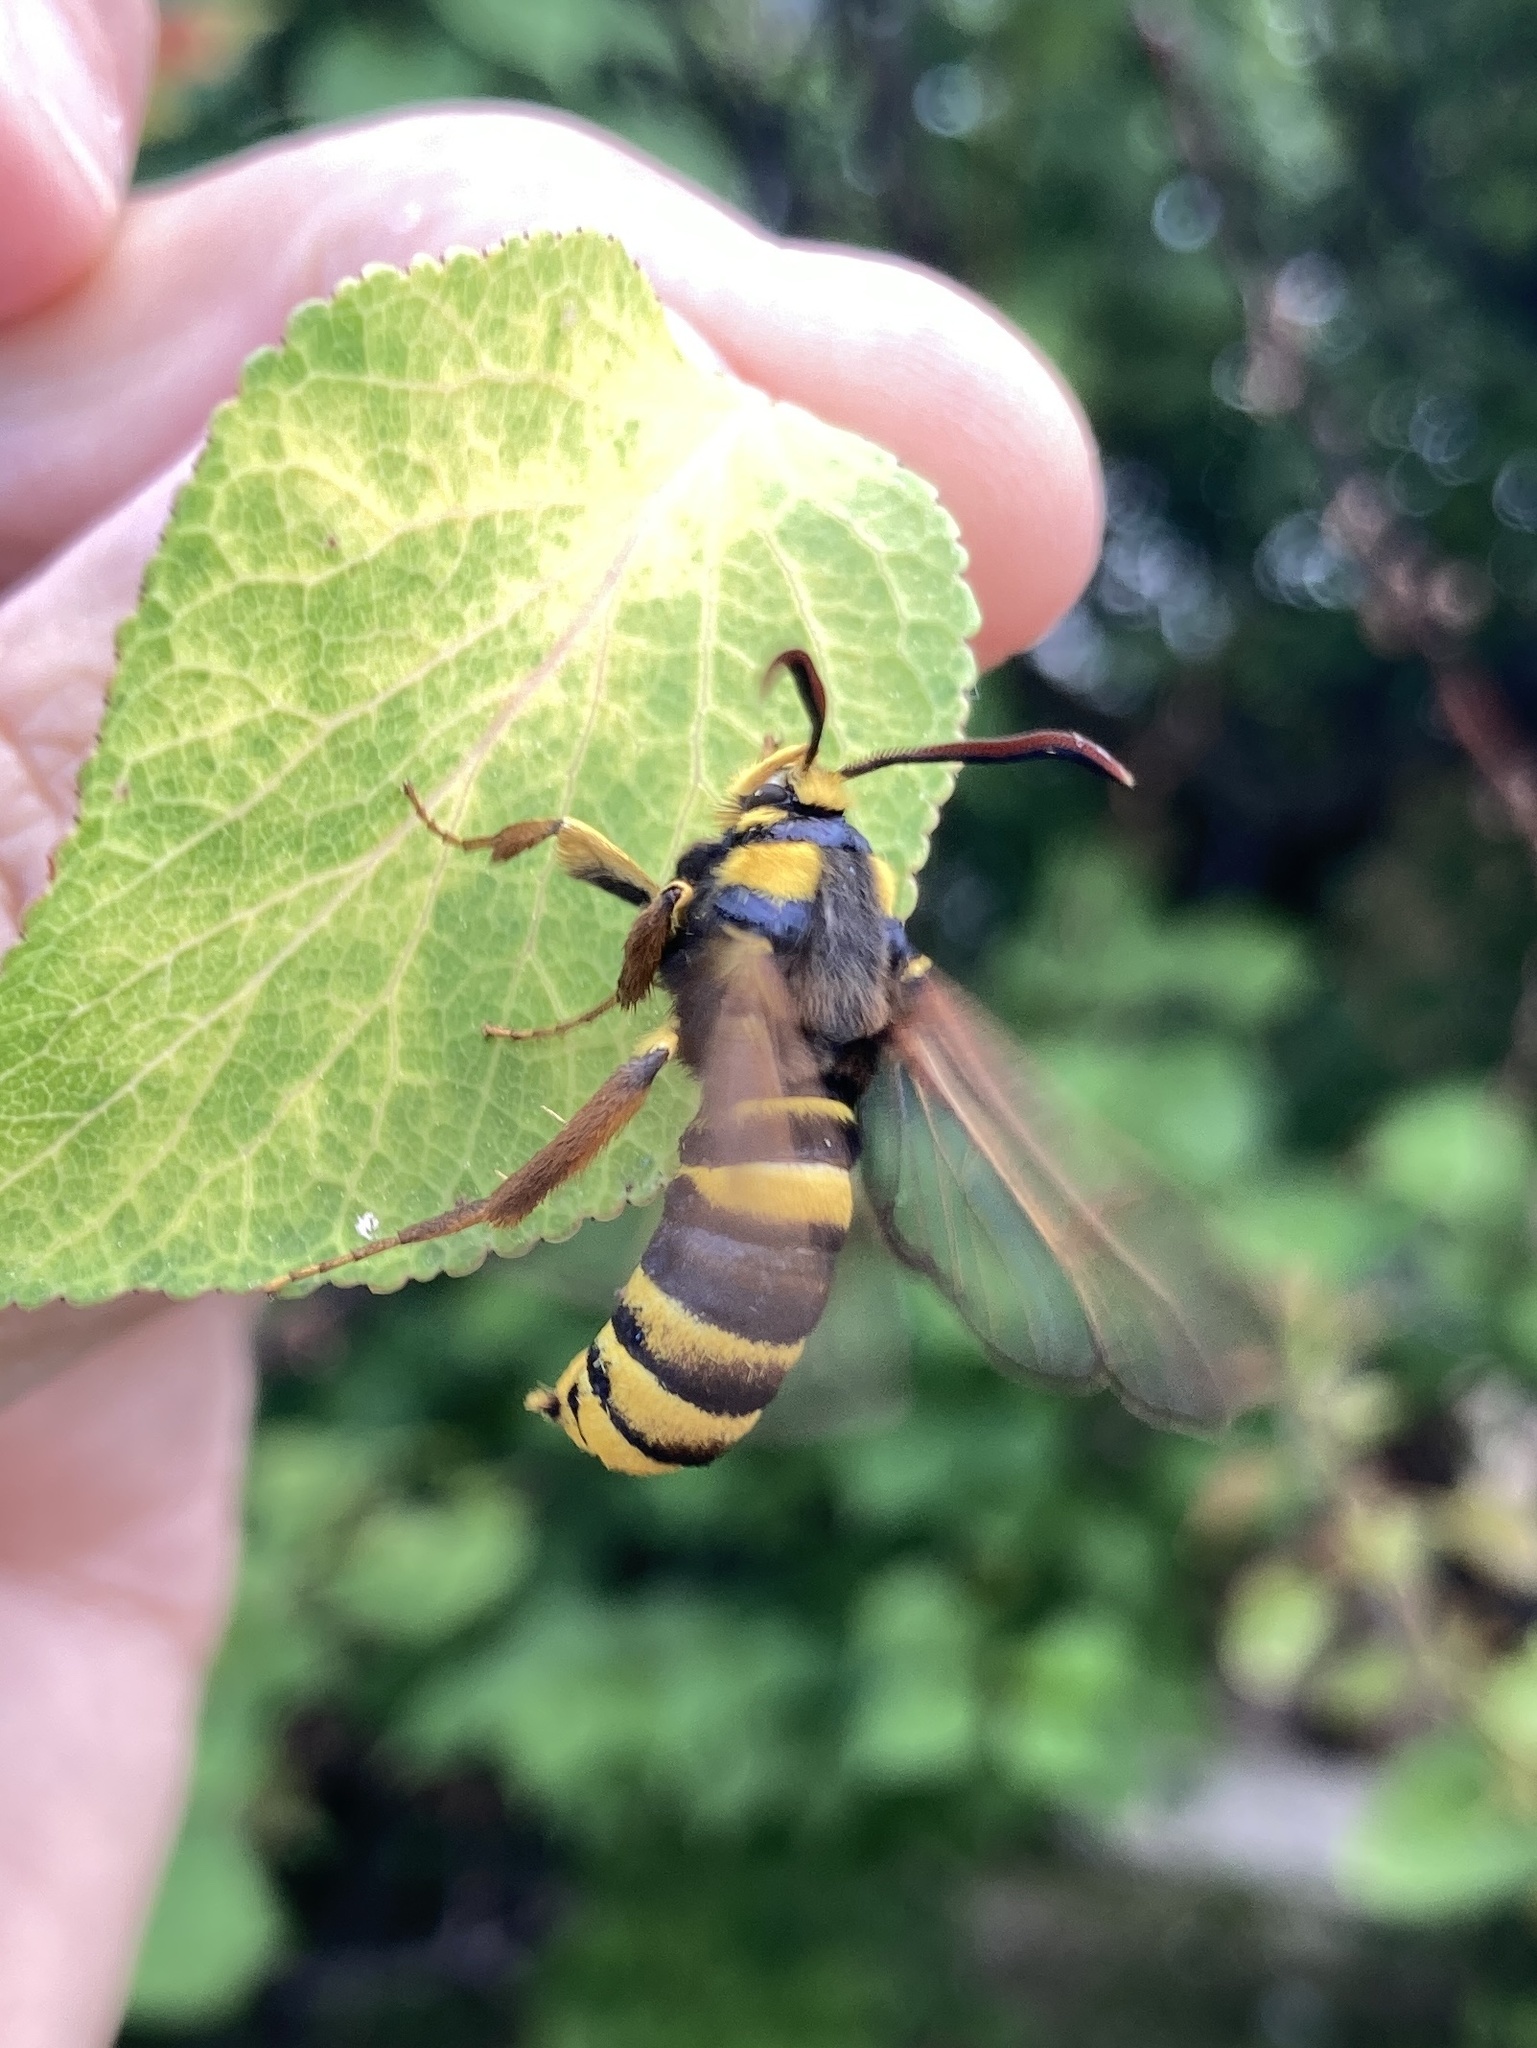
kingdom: Animalia
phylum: Arthropoda
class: Insecta
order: Lepidoptera
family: Sesiidae
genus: Sesia
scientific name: Sesia apiformis
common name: Hornet moth
